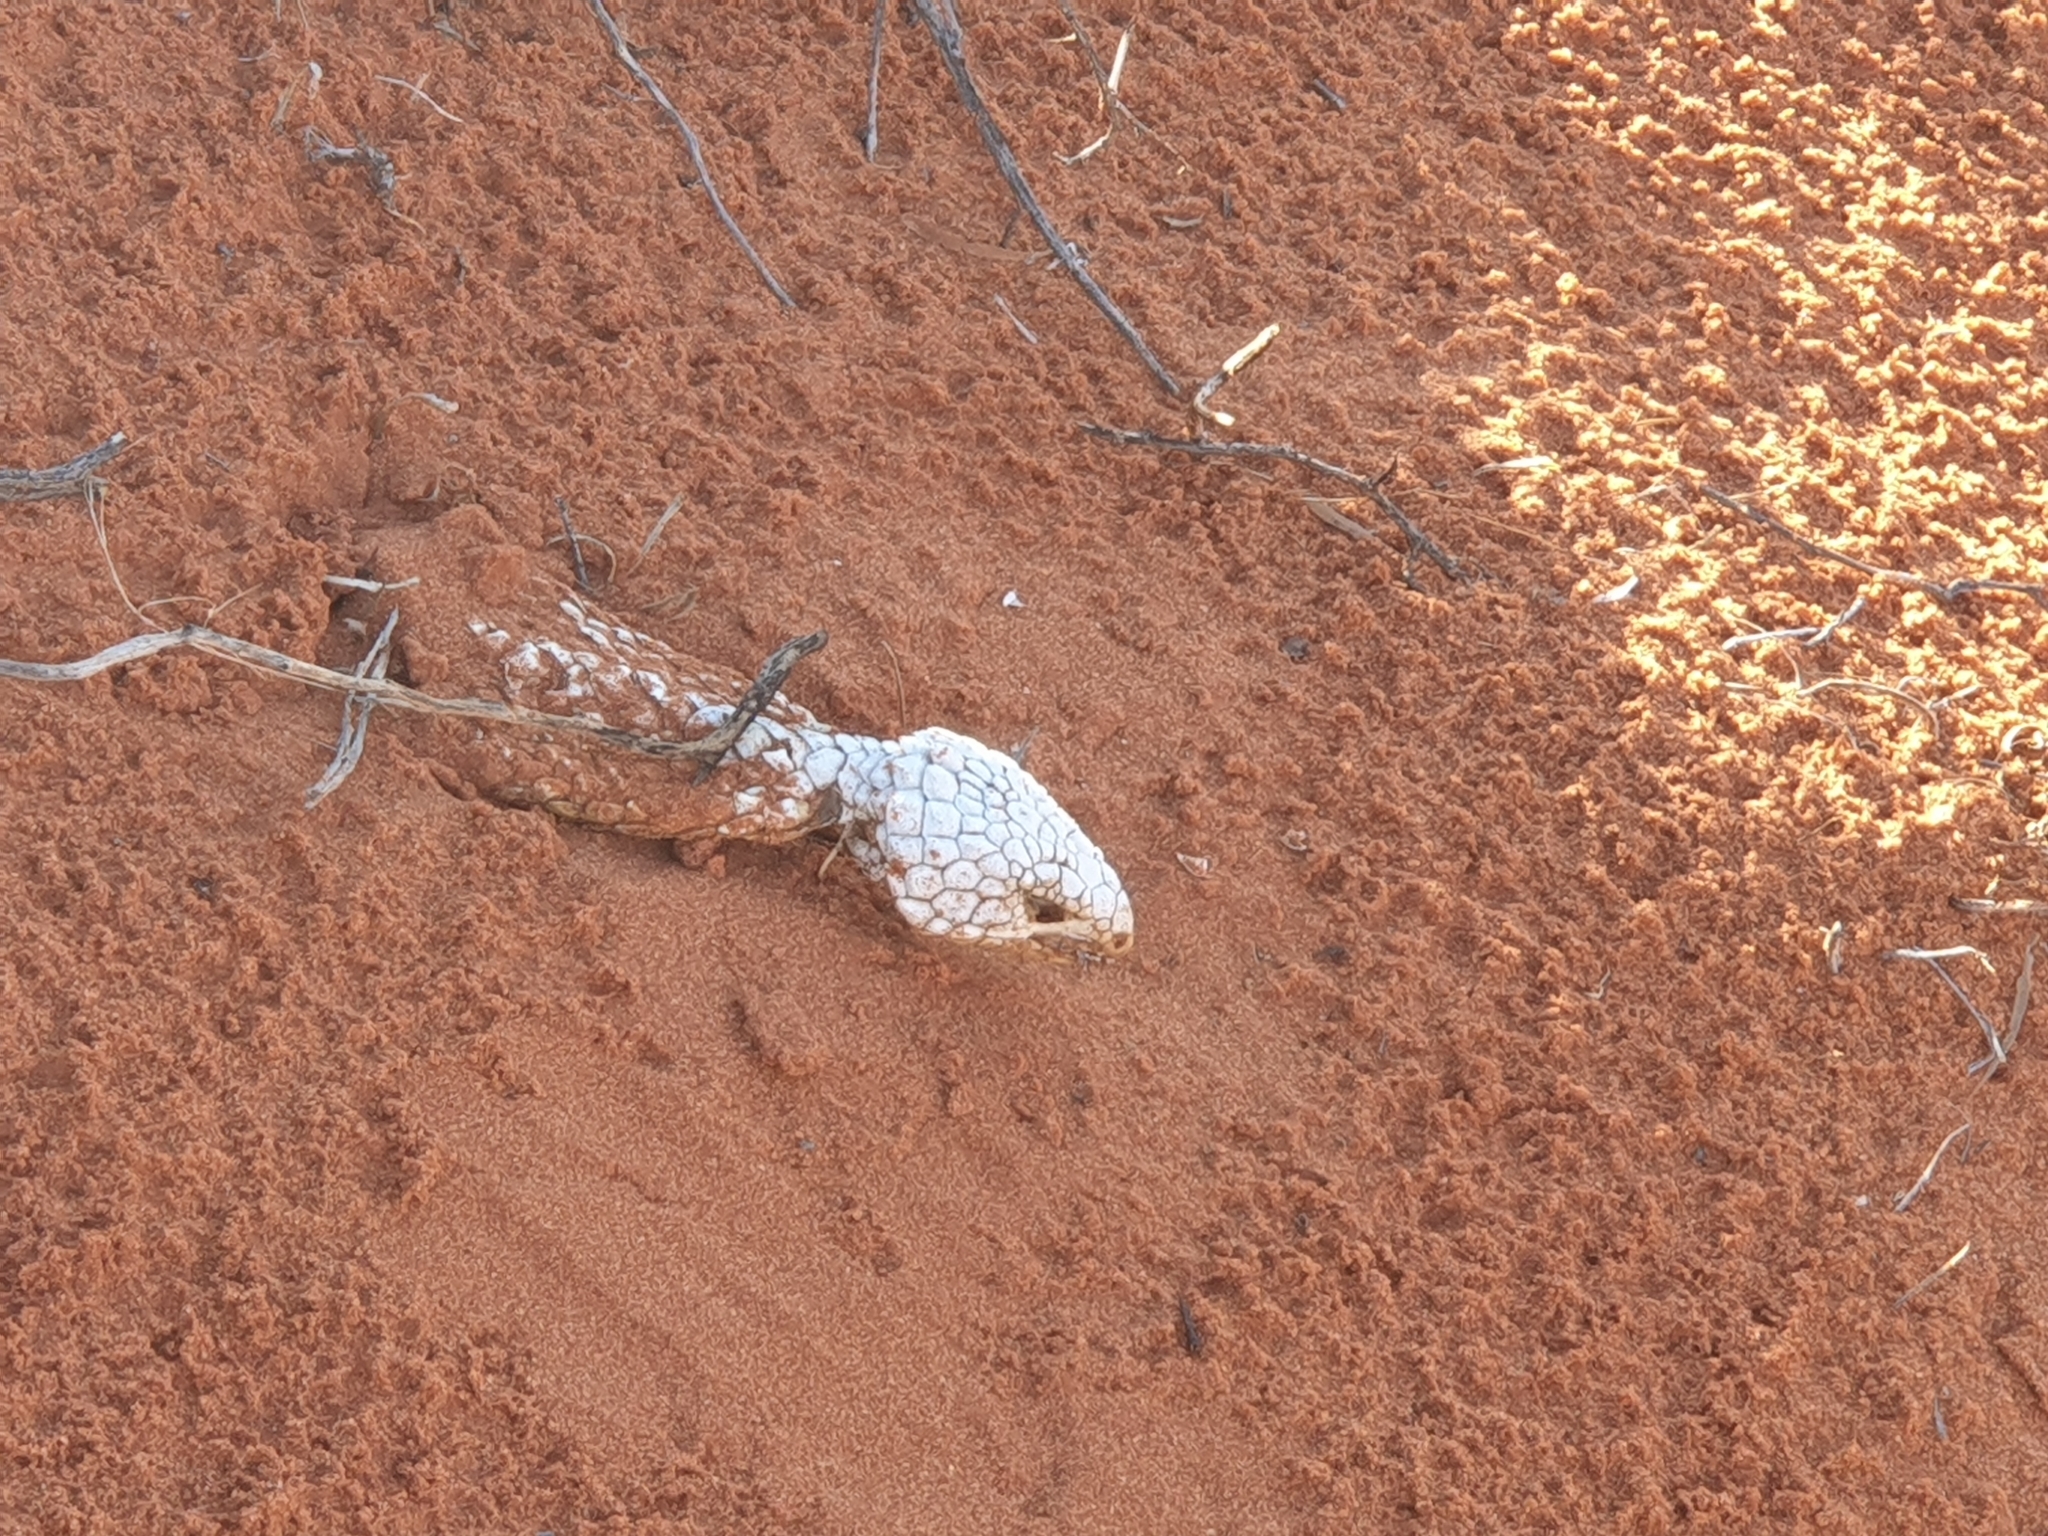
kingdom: Animalia
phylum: Chordata
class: Squamata
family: Scincidae
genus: Tiliqua
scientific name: Tiliqua rugosa
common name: Pinecone lizard
